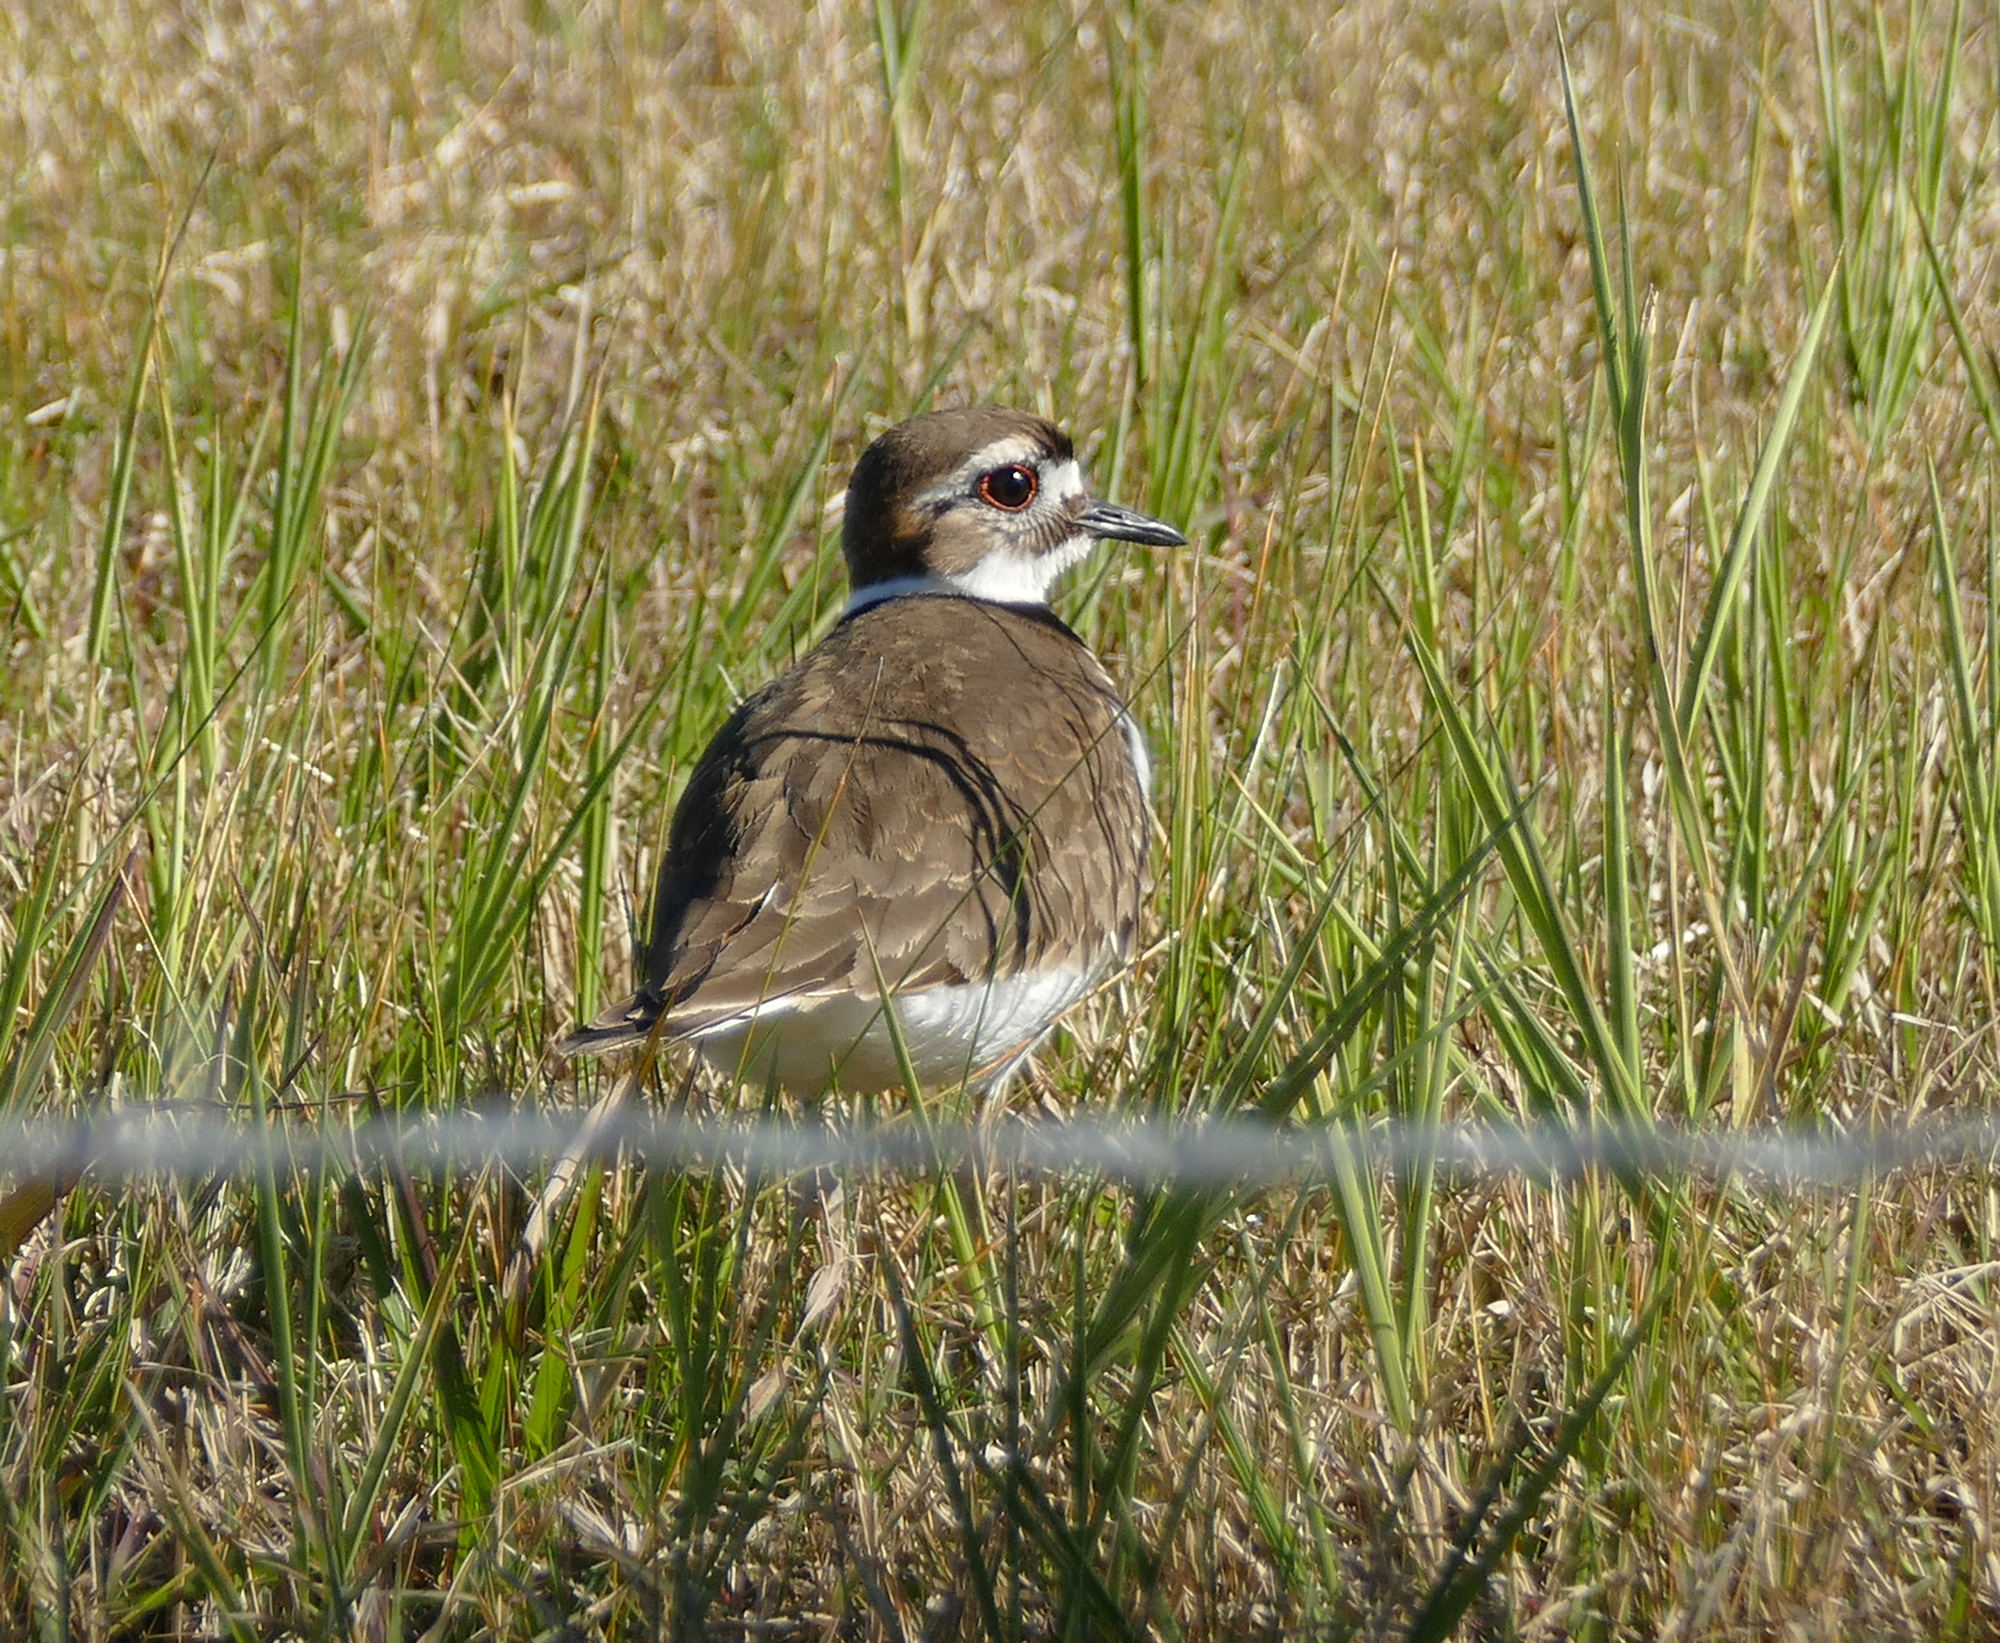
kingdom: Animalia
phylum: Chordata
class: Aves
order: Charadriiformes
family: Charadriidae
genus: Charadrius
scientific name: Charadrius vociferus
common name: Killdeer
